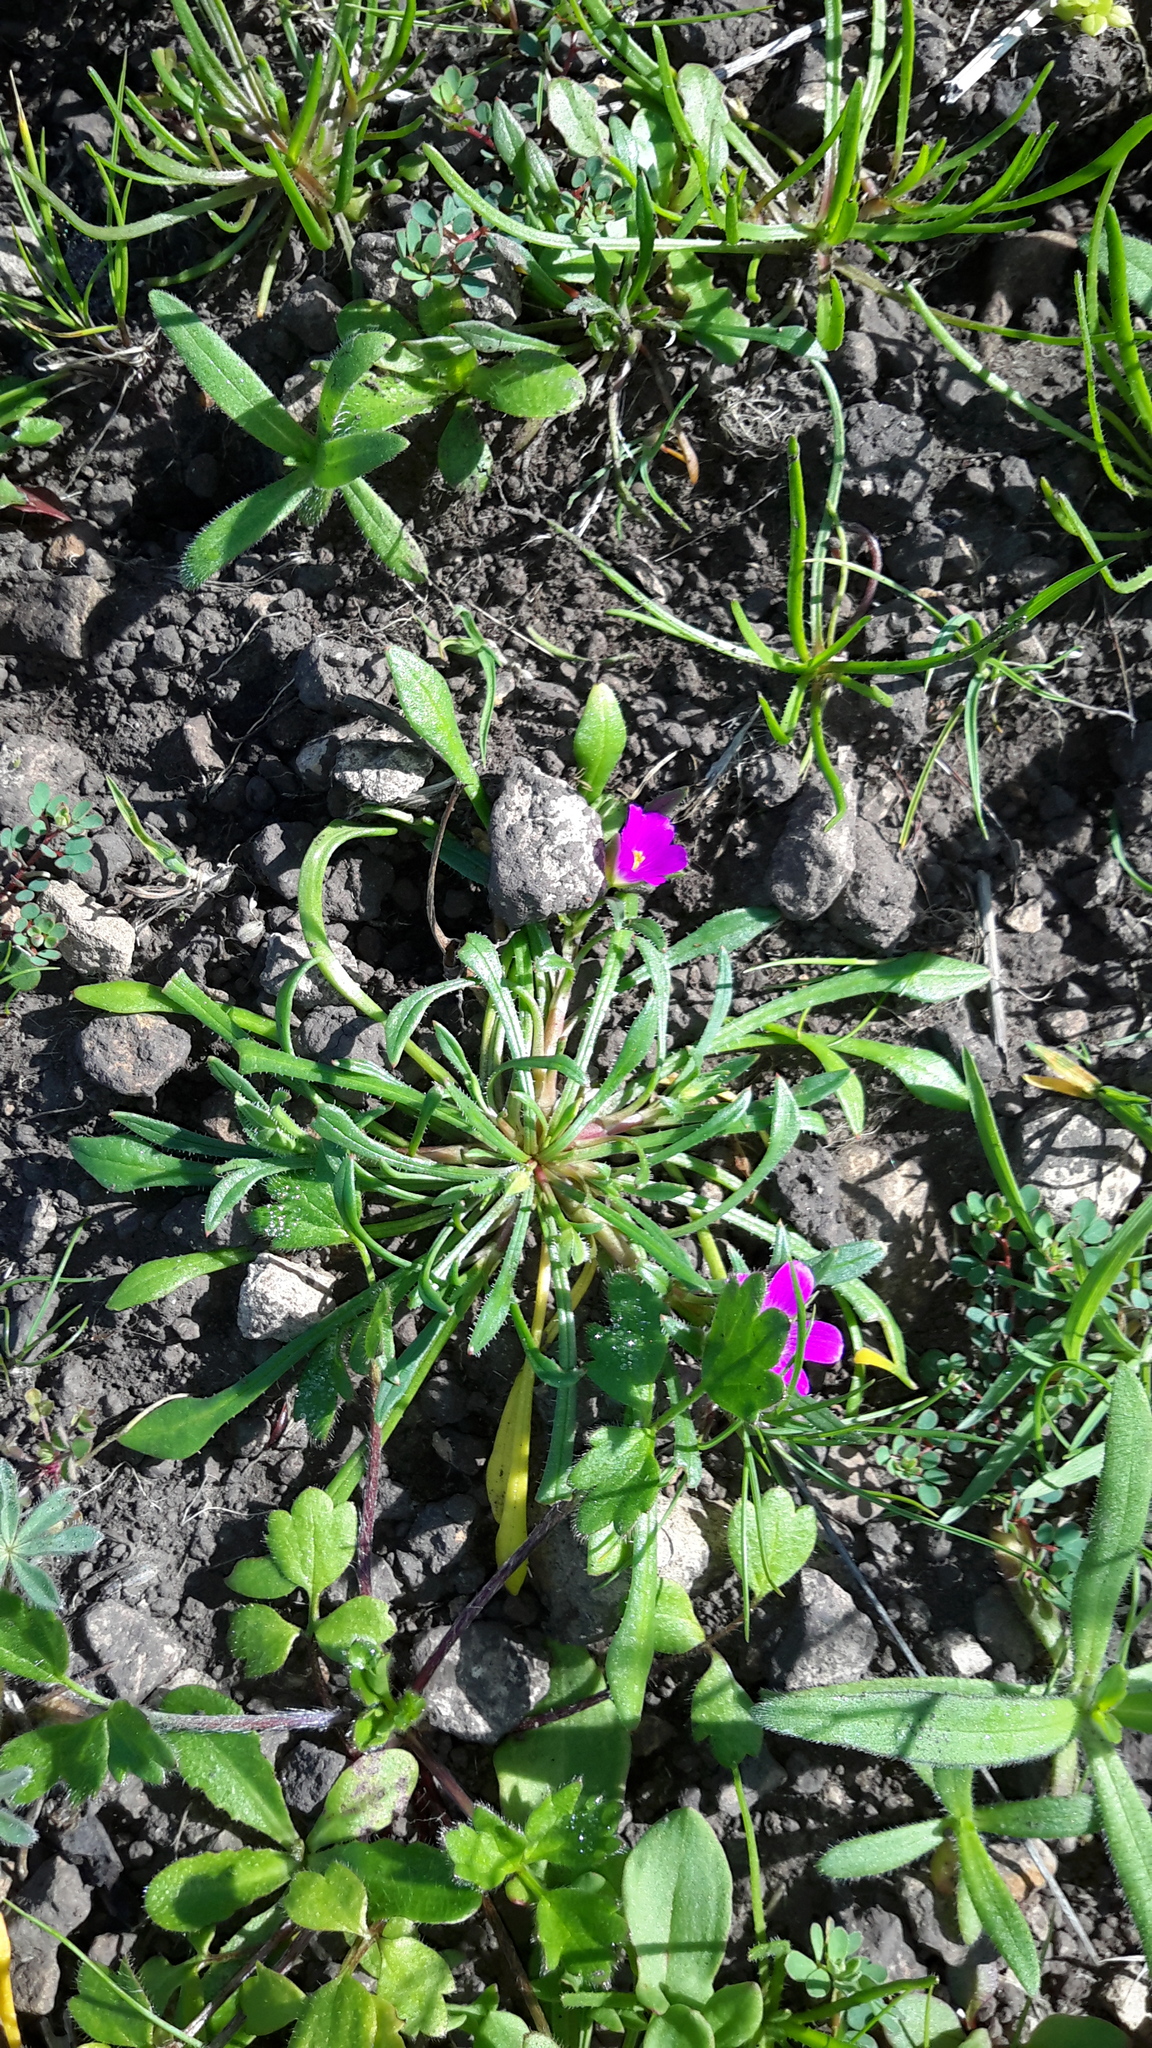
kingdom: Plantae
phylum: Tracheophyta
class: Magnoliopsida
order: Caryophyllales
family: Montiaceae
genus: Calandrinia
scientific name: Calandrinia menziesii
